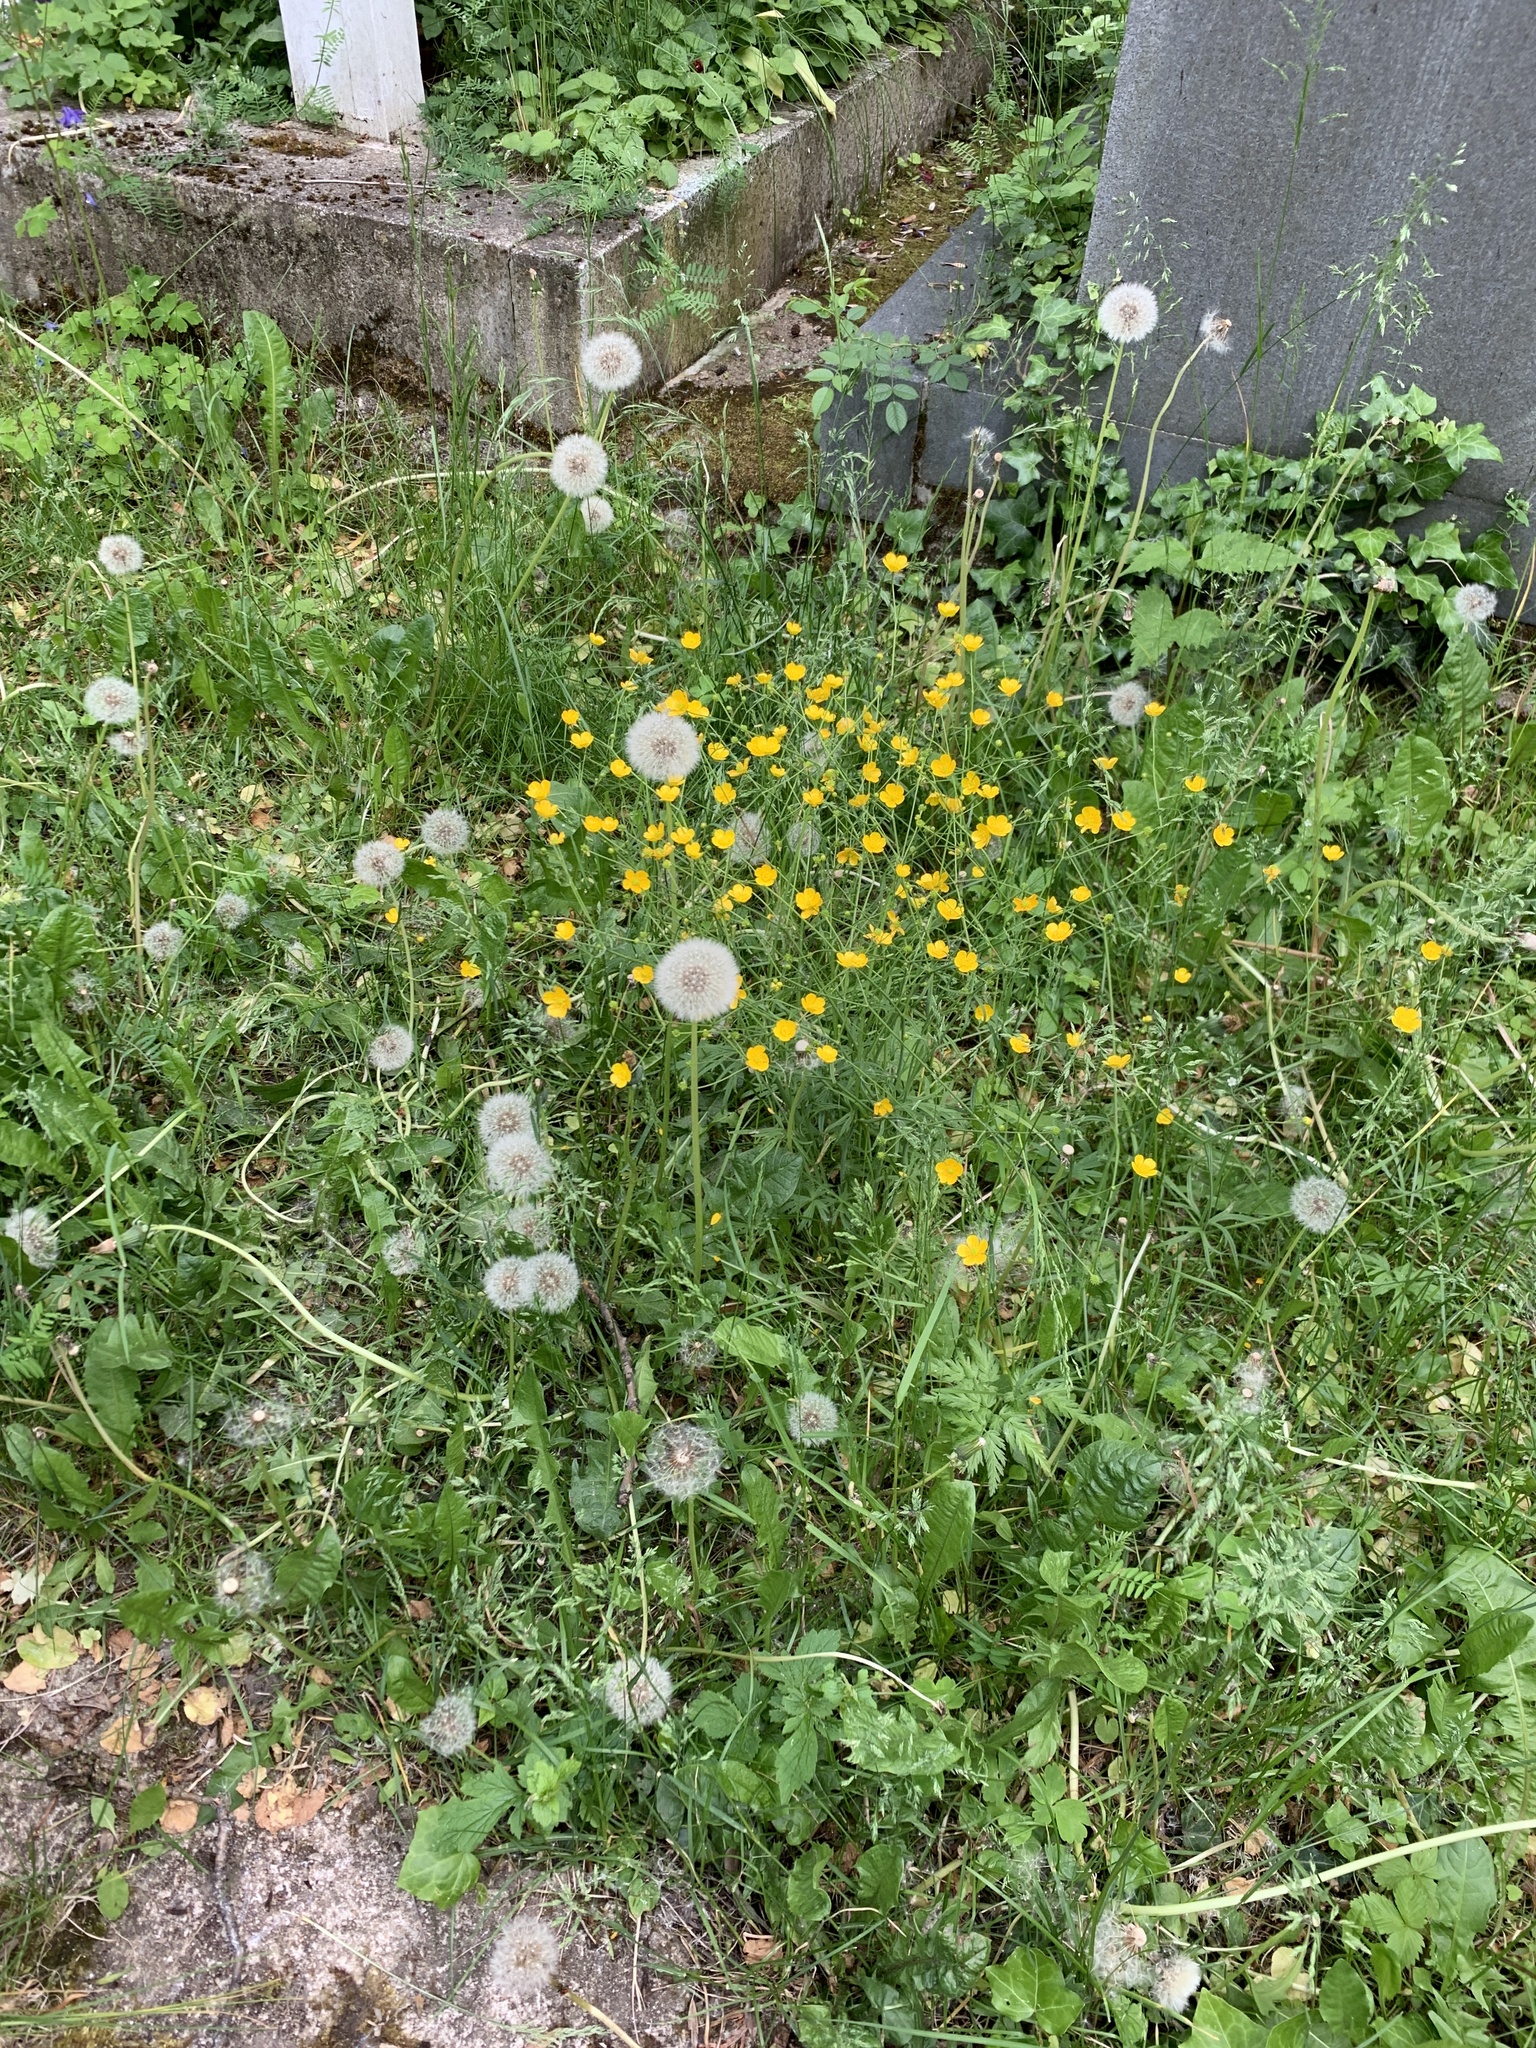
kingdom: Plantae
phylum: Tracheophyta
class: Magnoliopsida
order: Ranunculales
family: Ranunculaceae
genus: Ranunculus
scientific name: Ranunculus acris
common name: Meadow buttercup
